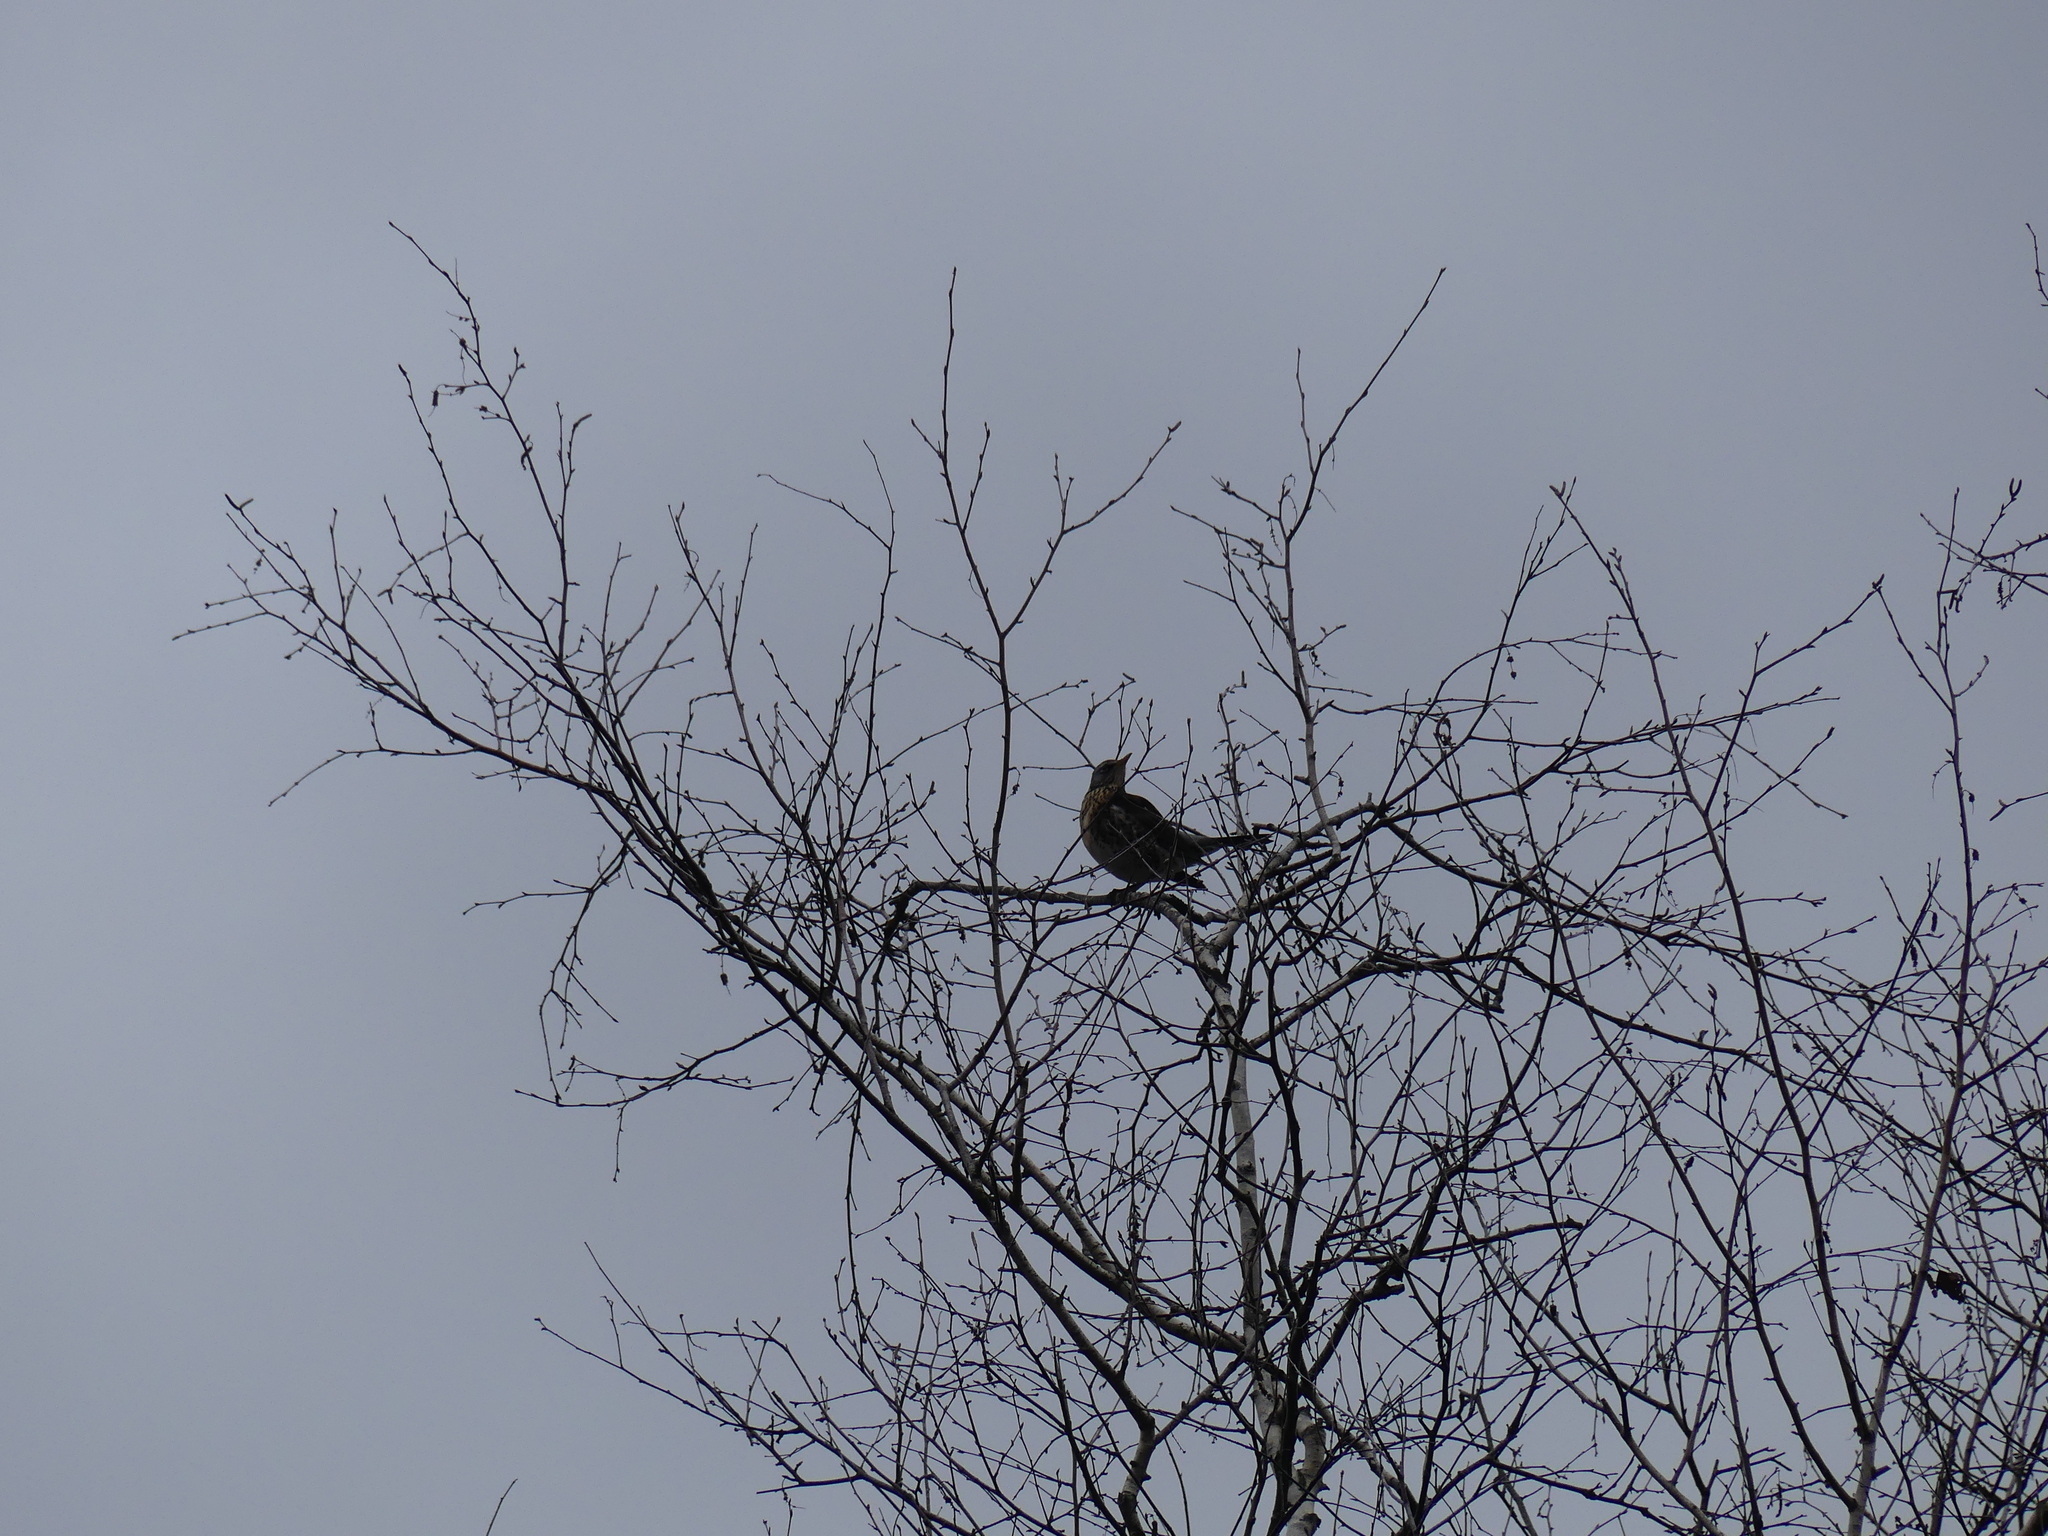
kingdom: Animalia
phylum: Chordata
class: Aves
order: Passeriformes
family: Turdidae
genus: Turdus
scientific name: Turdus pilaris
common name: Fieldfare
